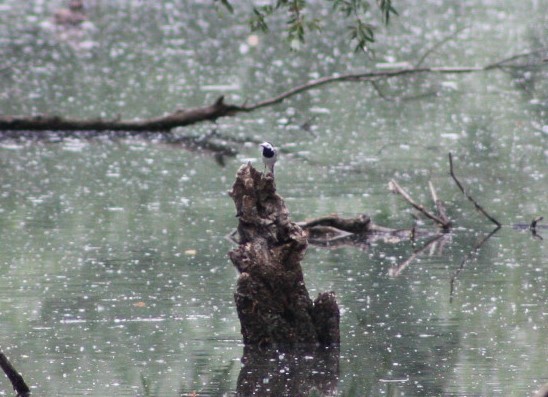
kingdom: Animalia
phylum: Chordata
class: Aves
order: Passeriformes
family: Motacillidae
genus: Motacilla
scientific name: Motacilla alba
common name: White wagtail
